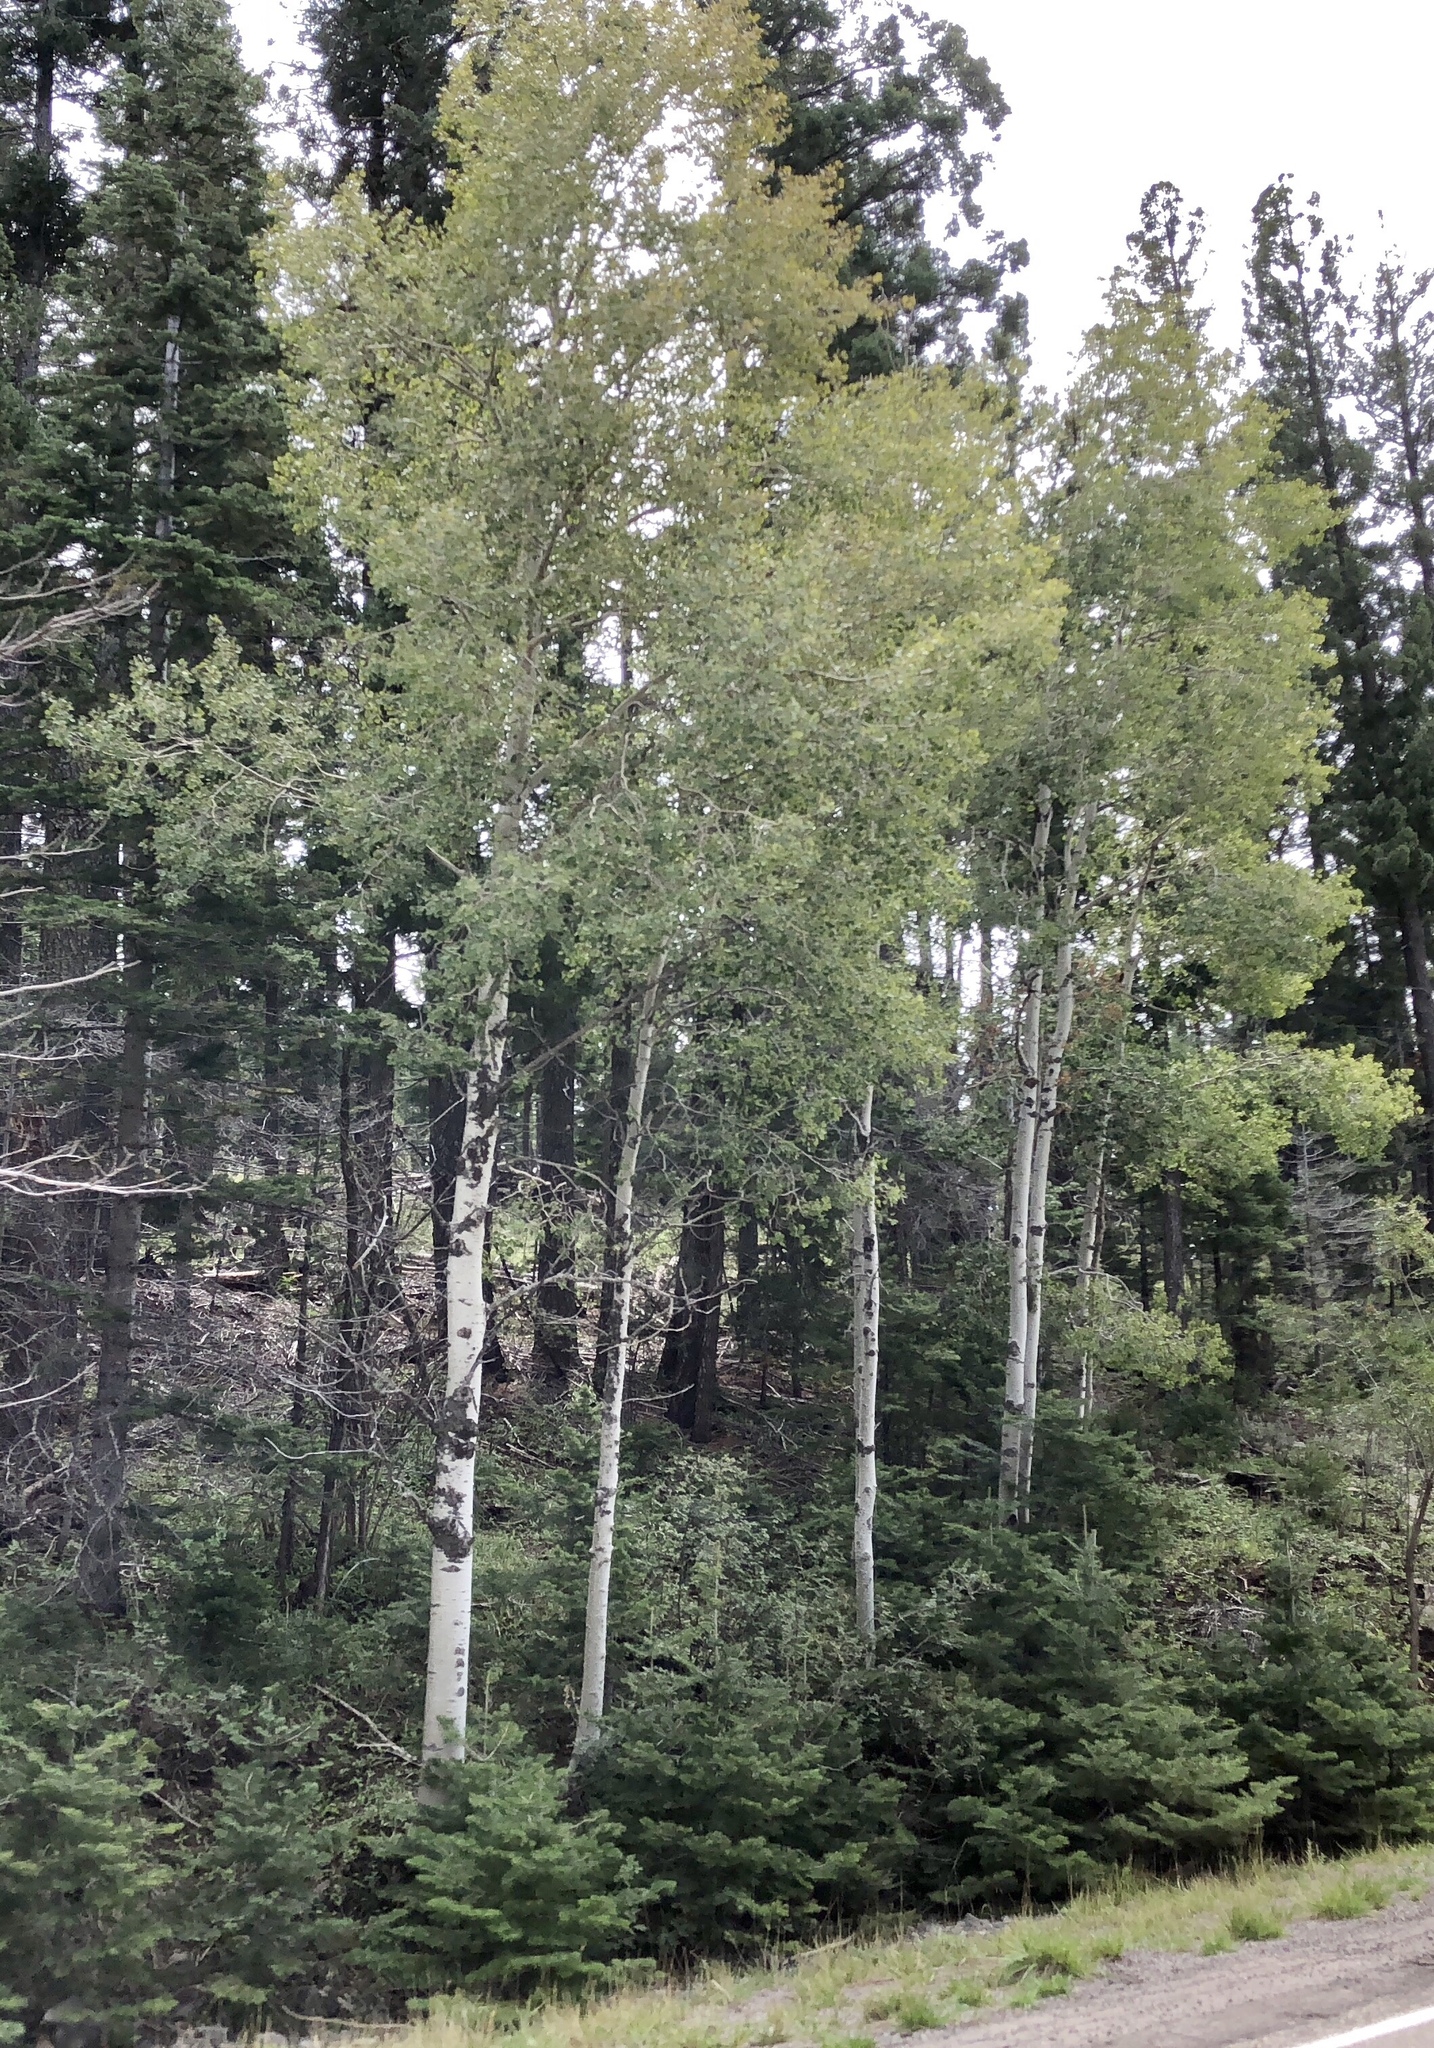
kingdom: Plantae
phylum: Tracheophyta
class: Magnoliopsida
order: Malpighiales
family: Salicaceae
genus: Populus
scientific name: Populus tremuloides
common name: Quaking aspen
